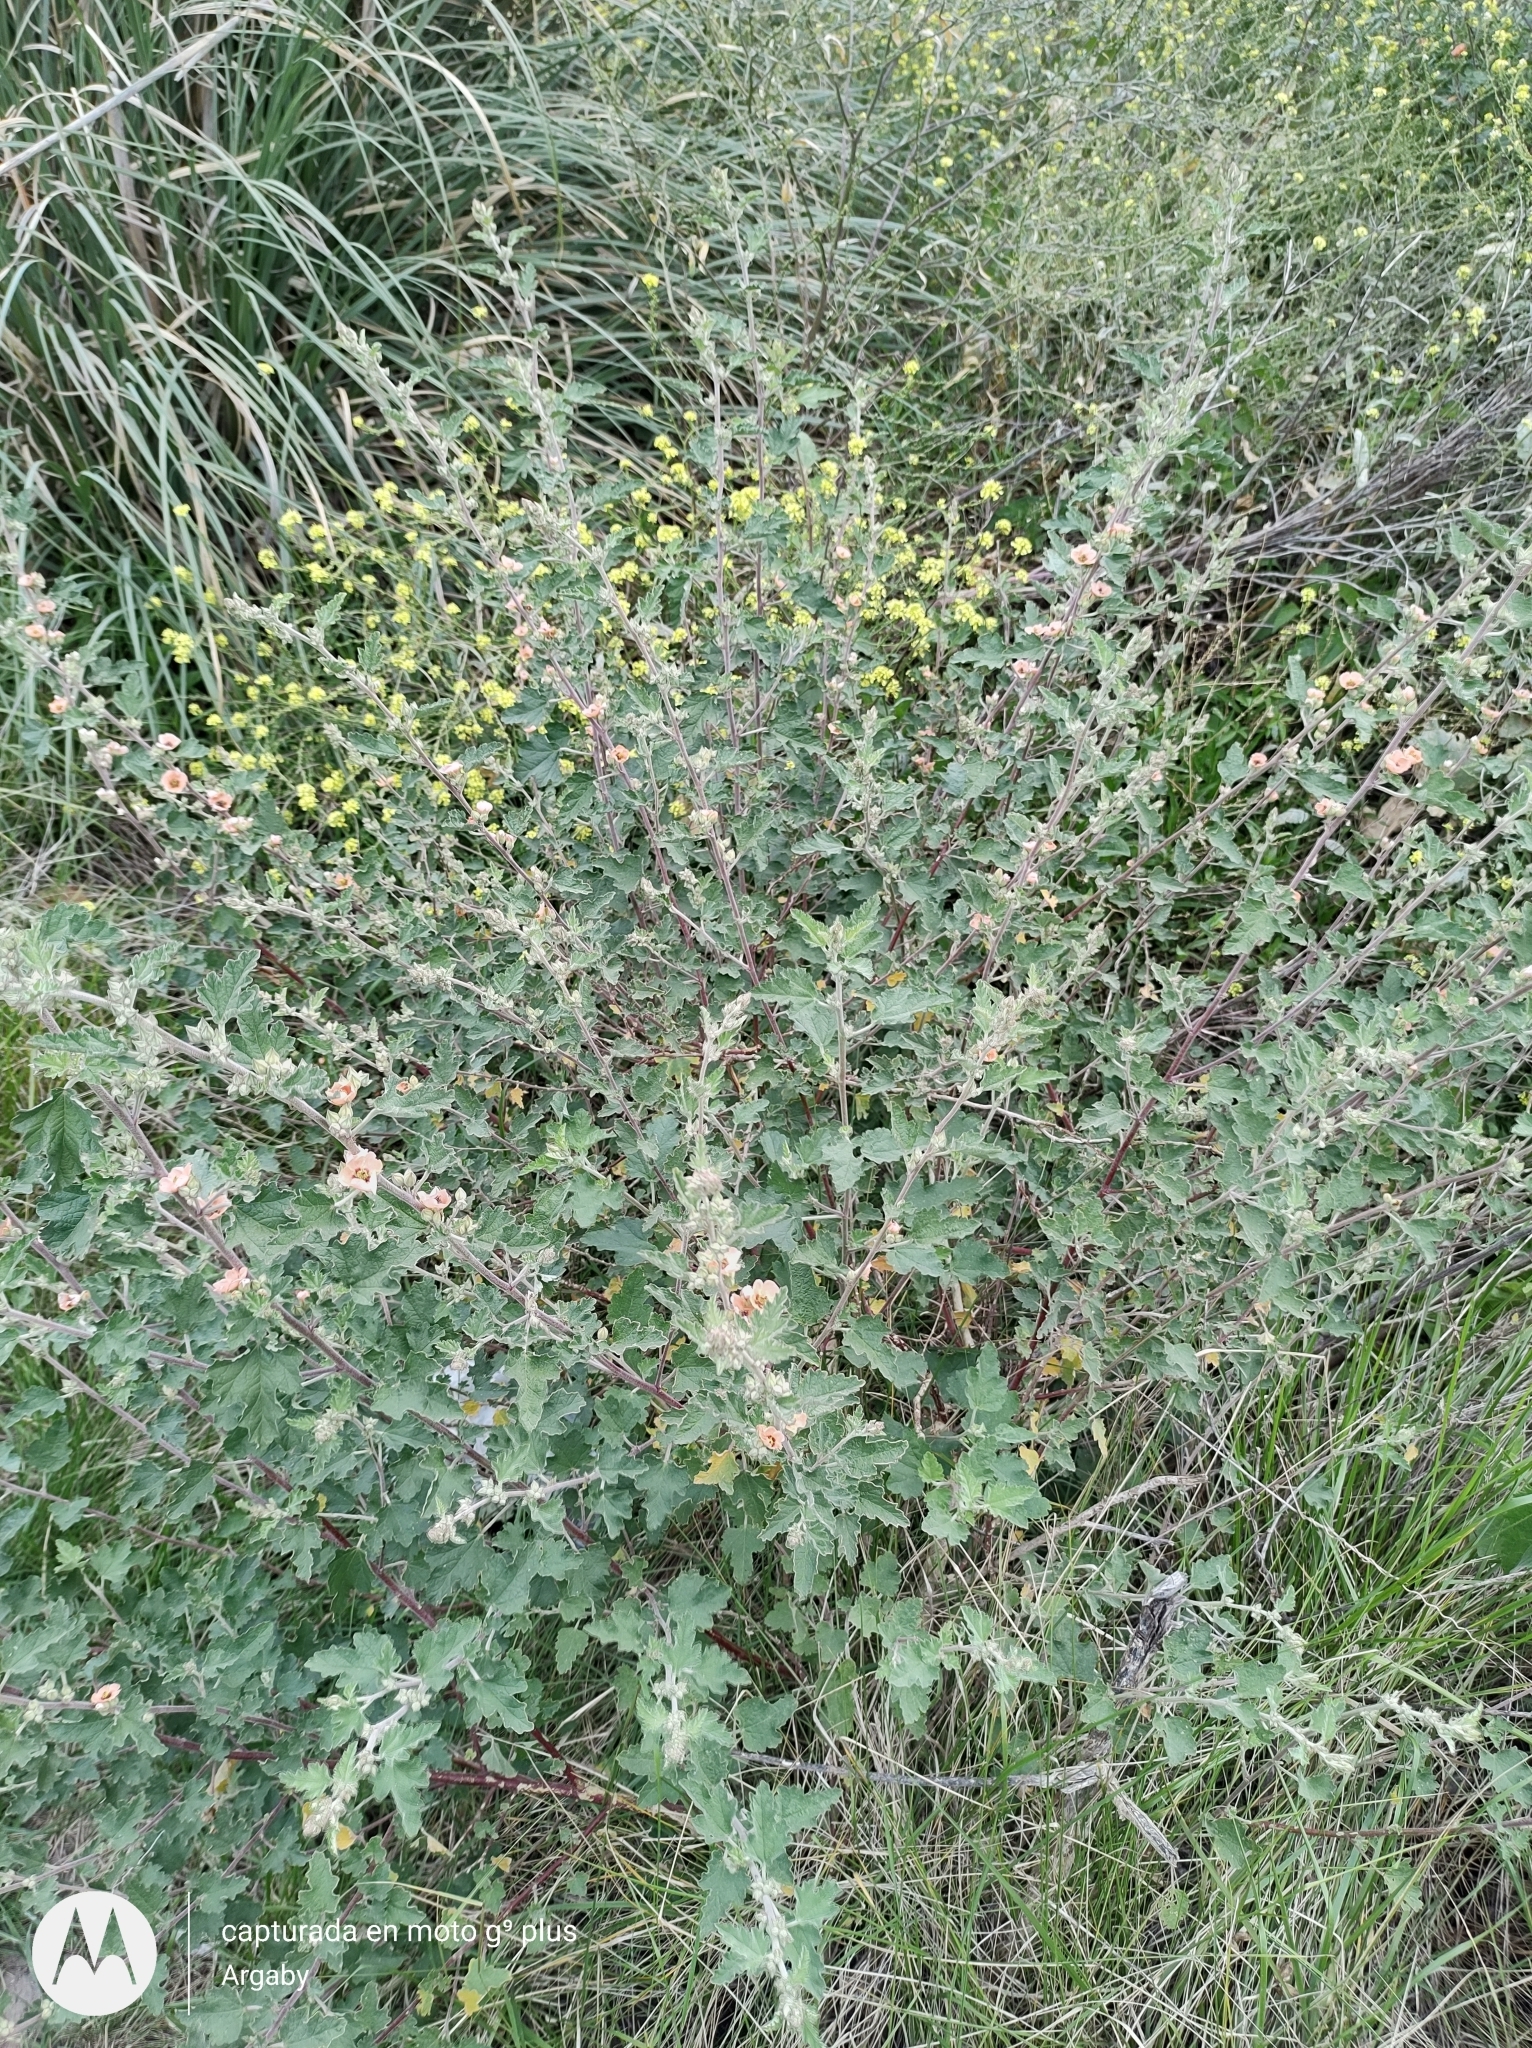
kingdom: Plantae
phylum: Tracheophyta
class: Magnoliopsida
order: Malvales
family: Malvaceae
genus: Sphaeralcea
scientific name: Sphaeralcea bonariensis
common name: Latin globemallow
